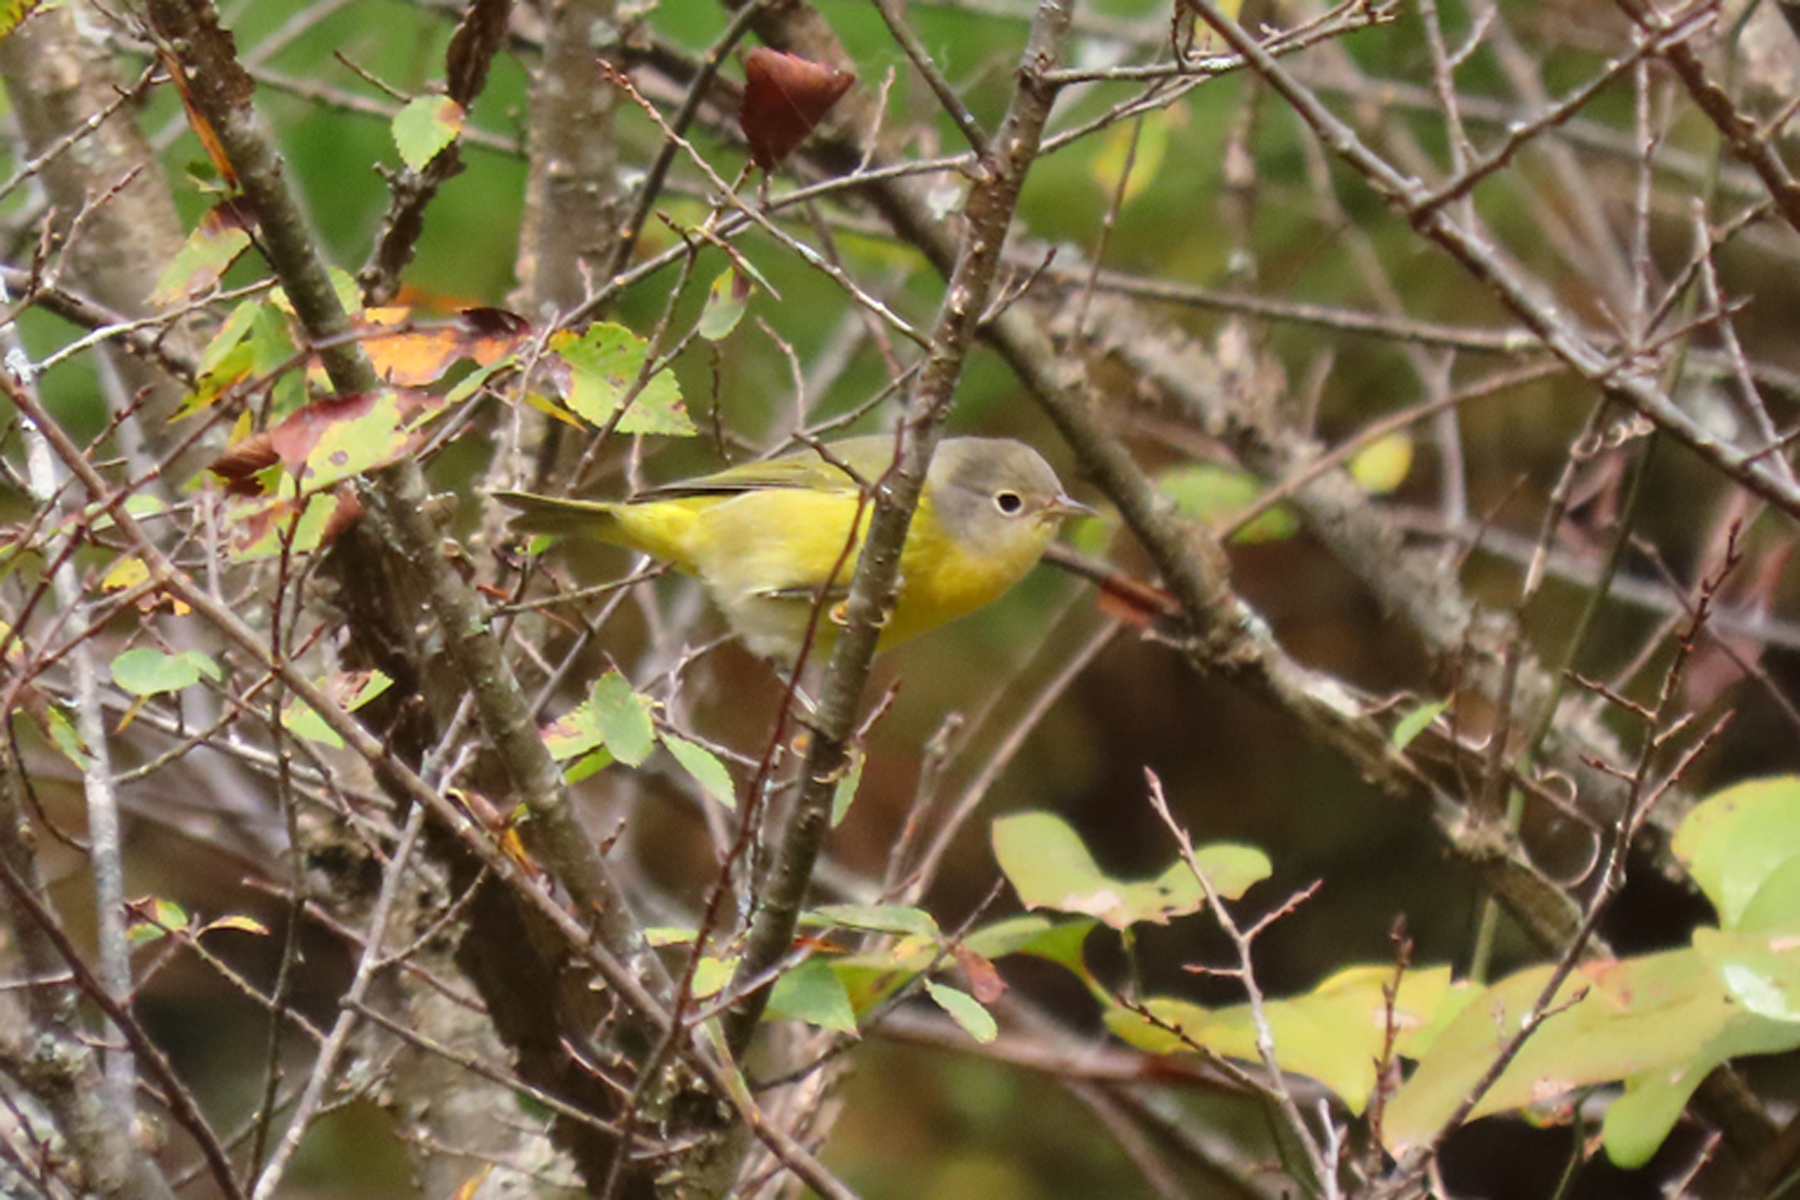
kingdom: Animalia
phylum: Chordata
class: Aves
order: Passeriformes
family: Parulidae
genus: Leiothlypis
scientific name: Leiothlypis ruficapilla
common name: Nashville warbler
